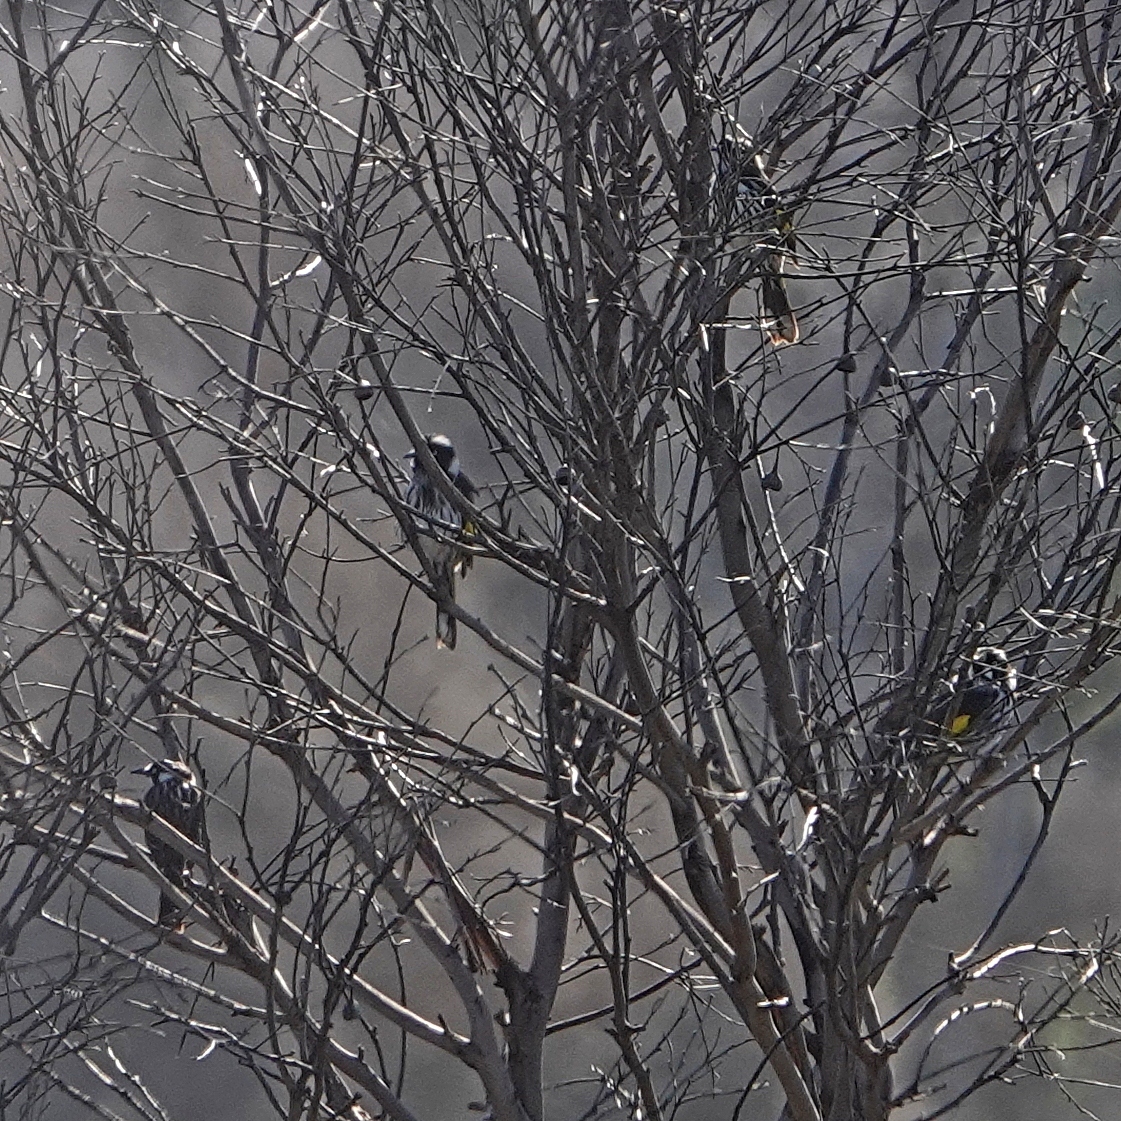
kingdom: Animalia
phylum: Chordata
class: Aves
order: Passeriformes
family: Meliphagidae
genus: Phylidonyris
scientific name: Phylidonyris novaehollandiae
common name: New holland honeyeater
